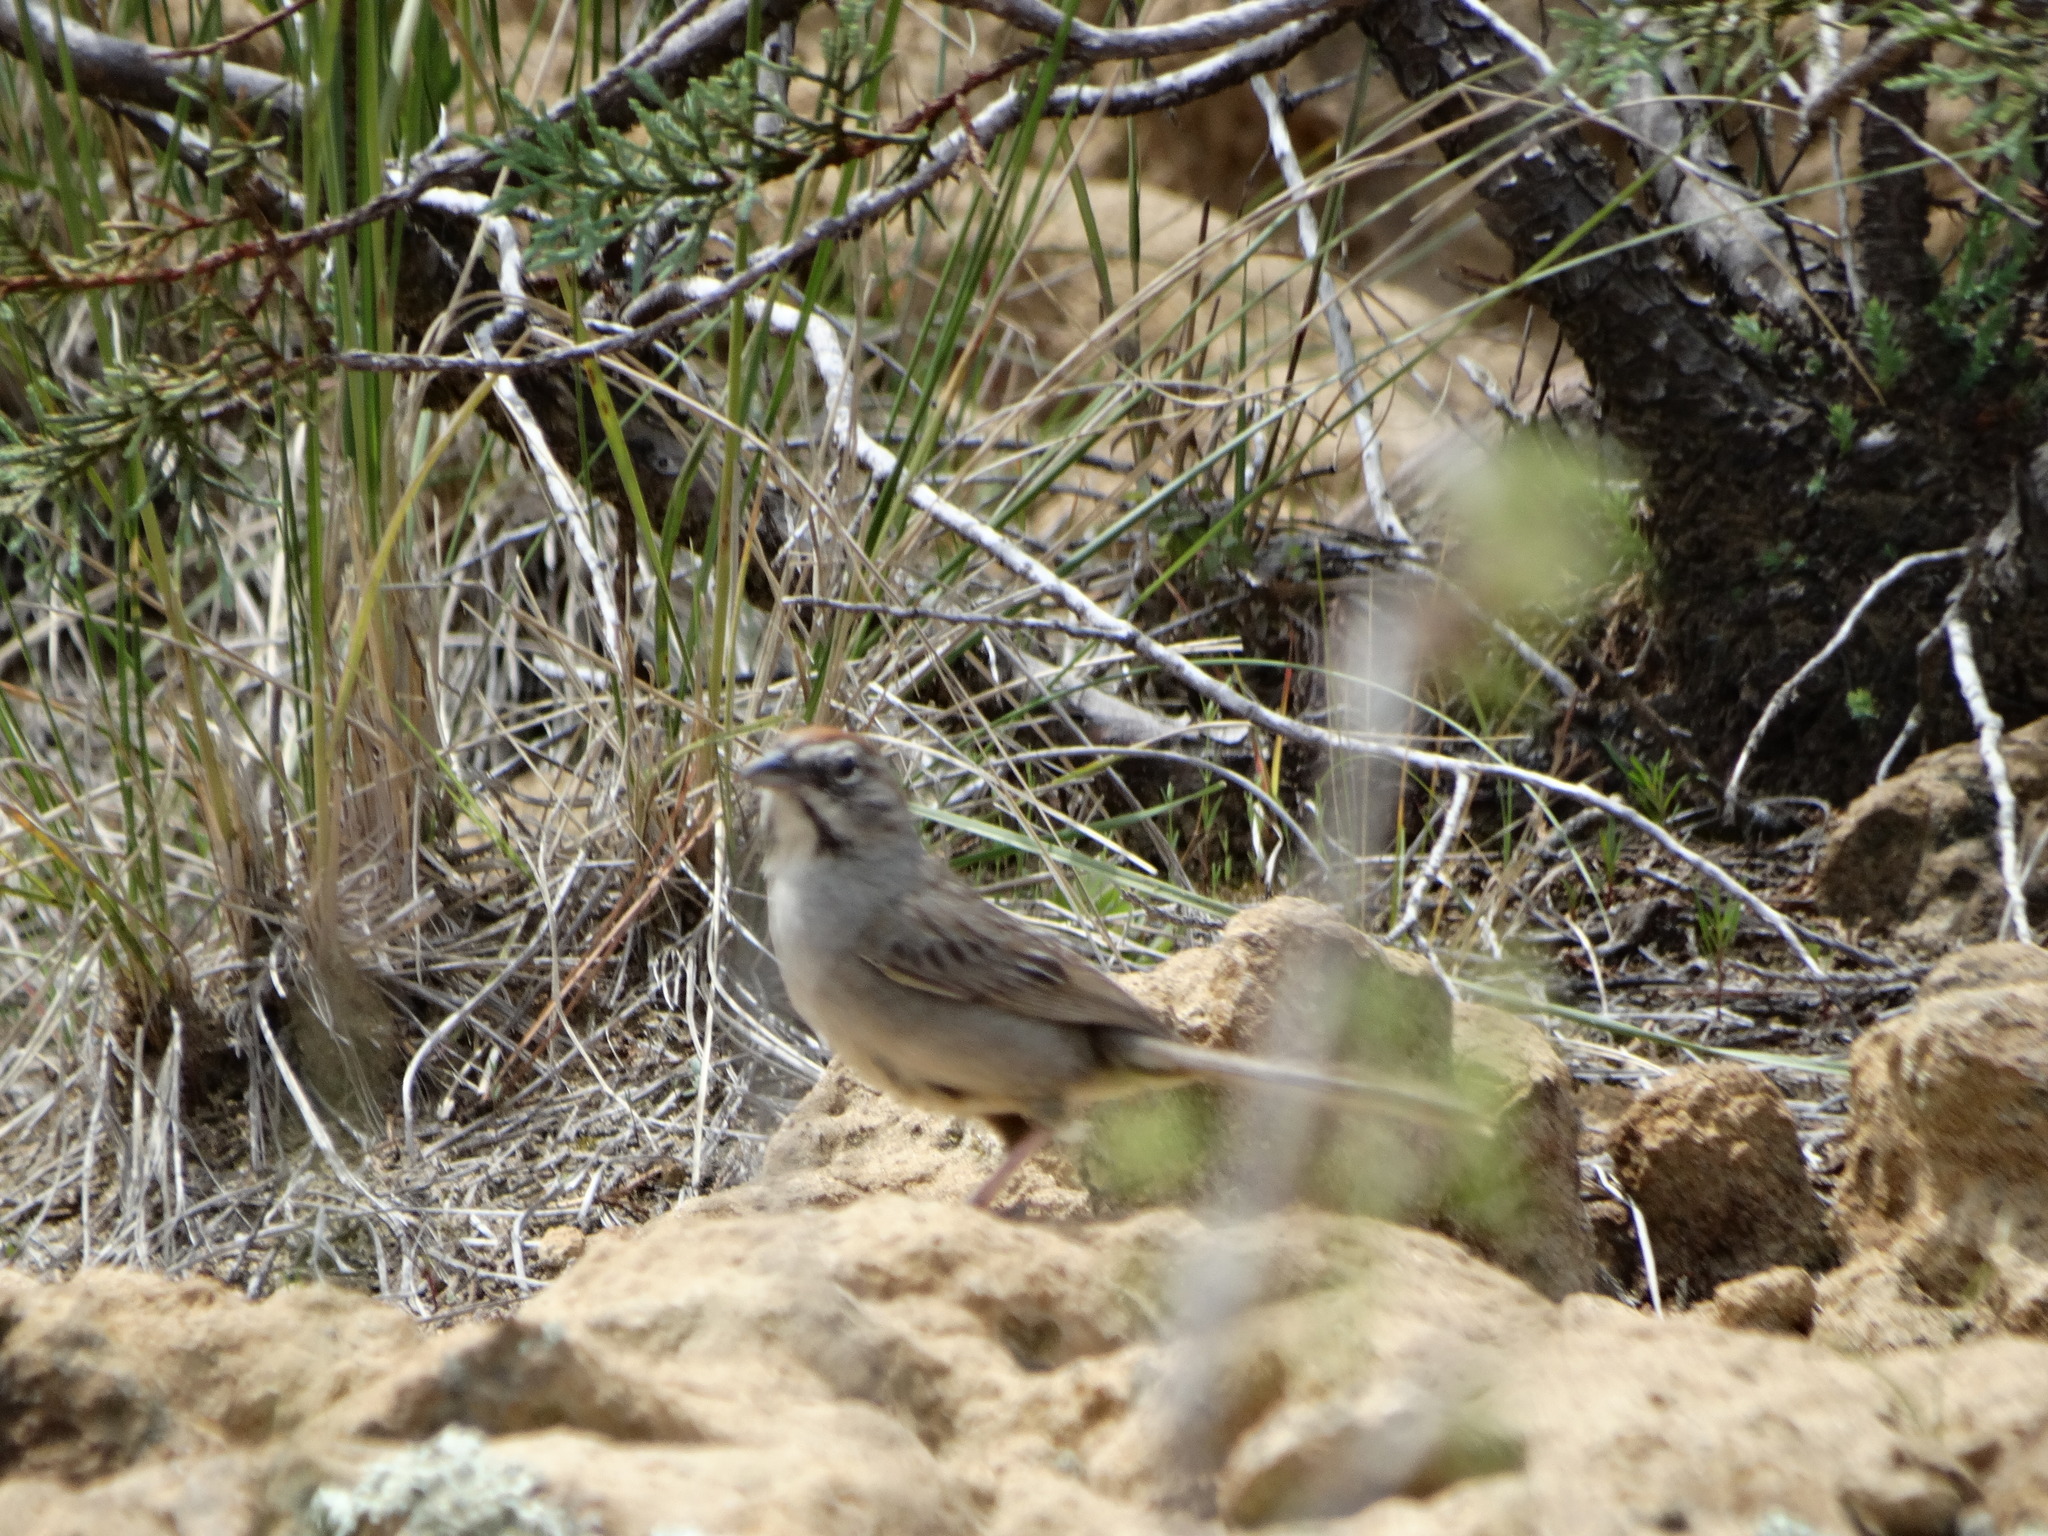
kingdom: Animalia
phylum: Chordata
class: Aves
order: Passeriformes
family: Passerellidae
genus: Aimophila
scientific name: Aimophila rufescens
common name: Rusty sparrow
